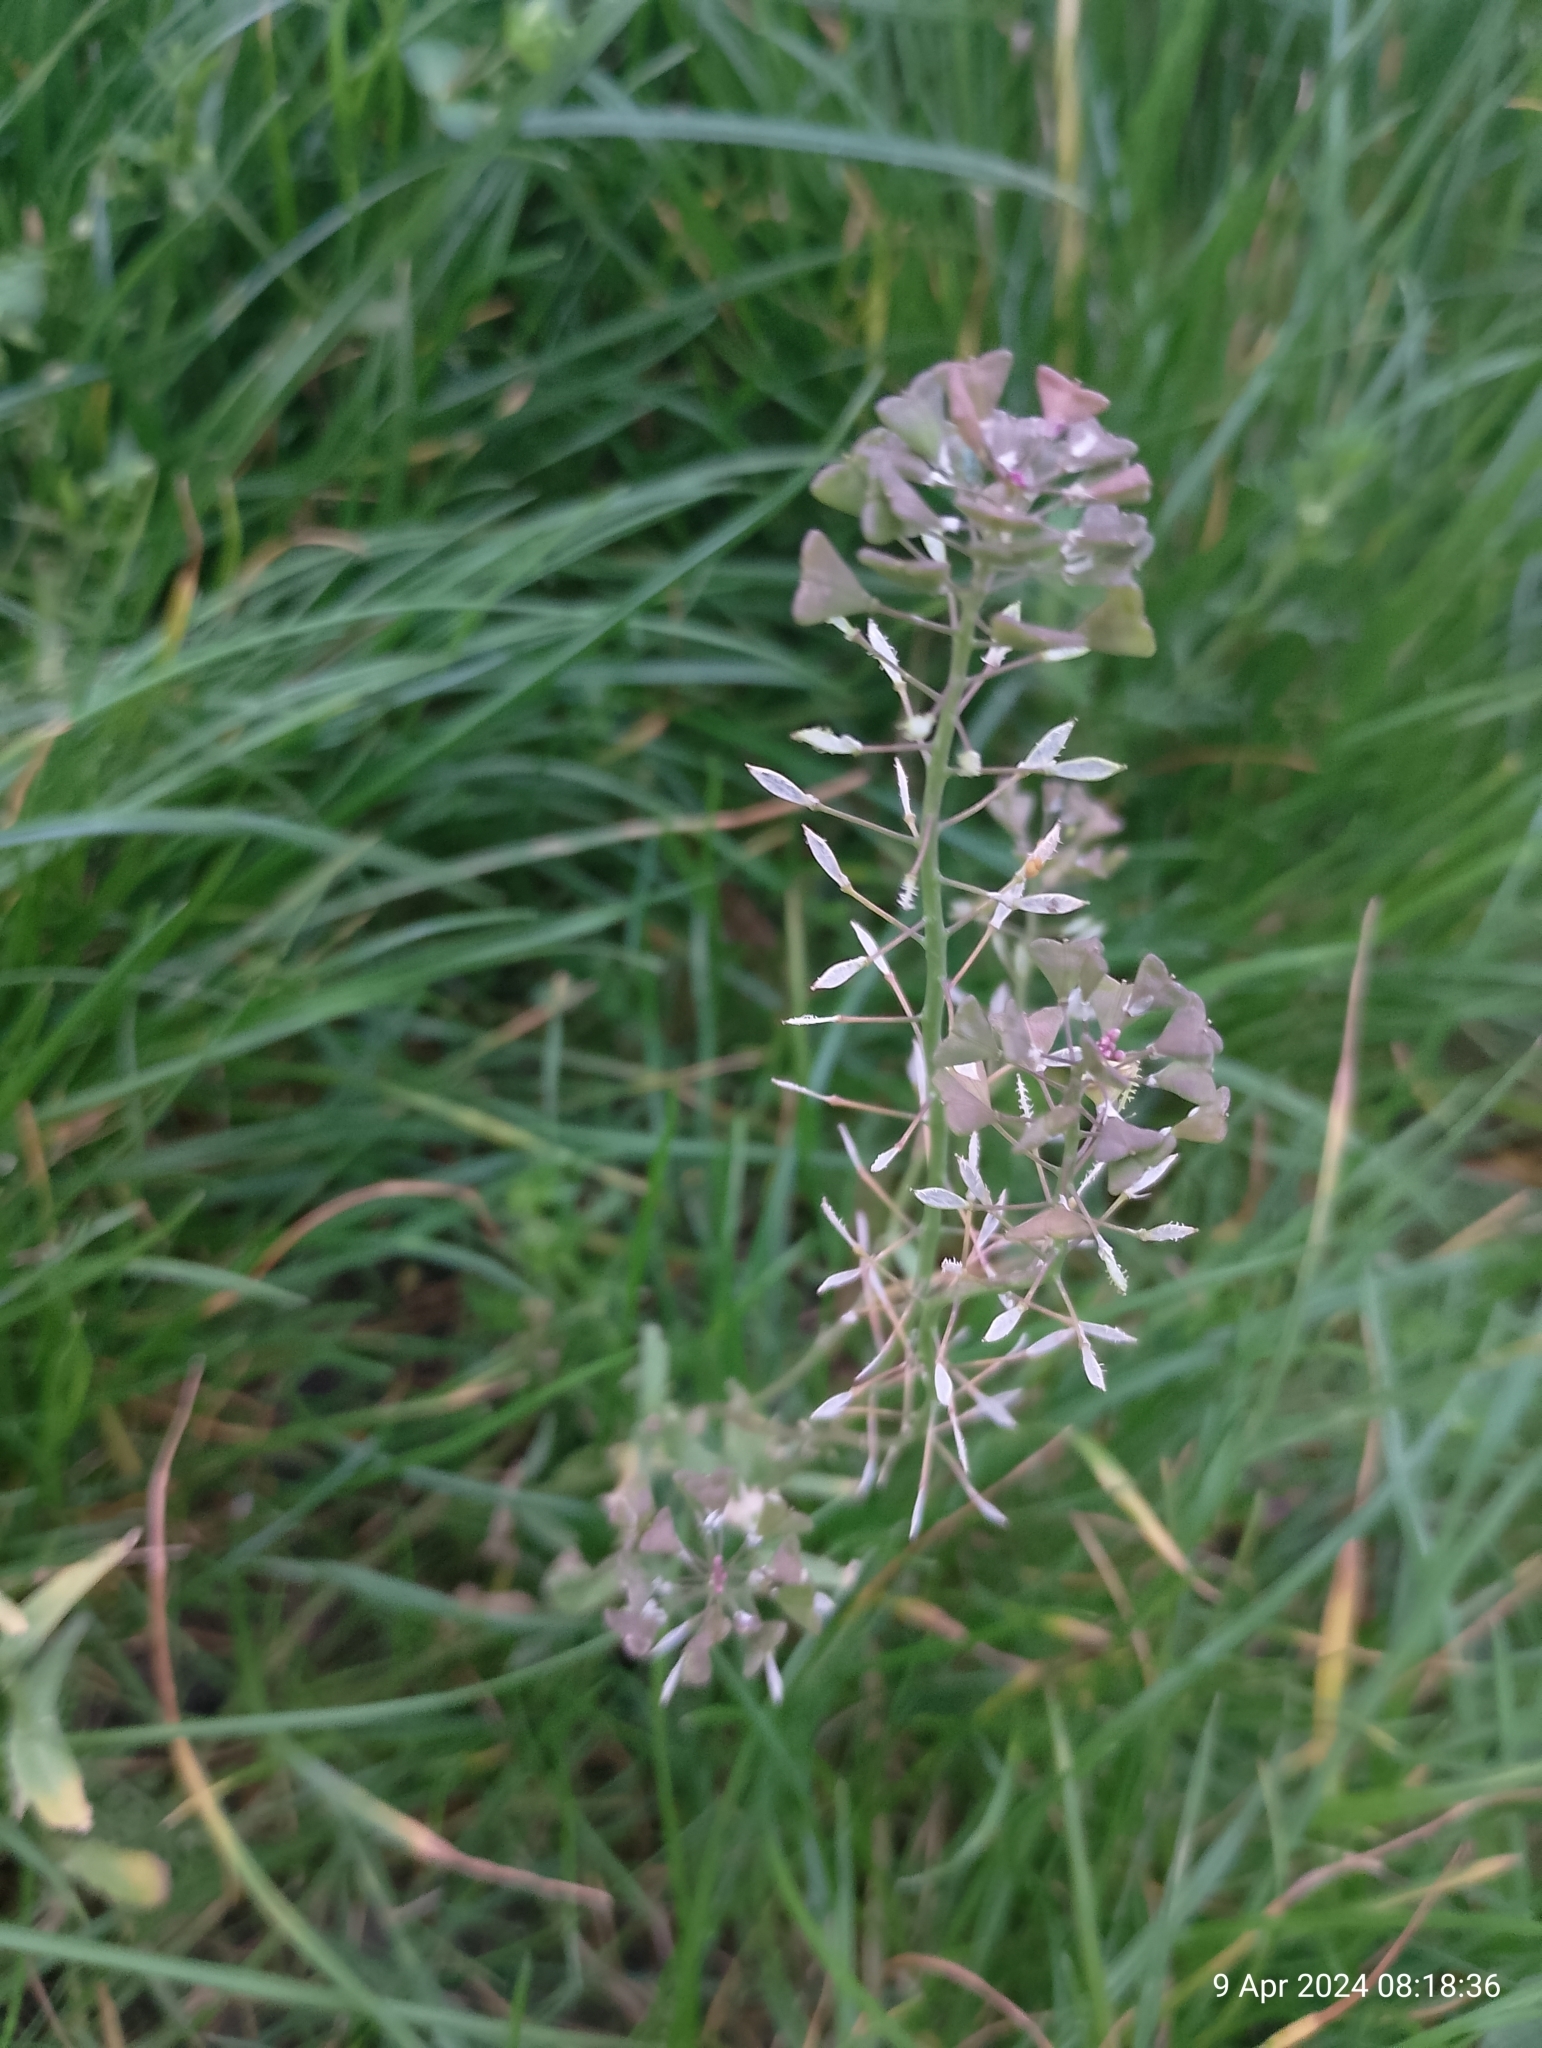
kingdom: Plantae
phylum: Tracheophyta
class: Magnoliopsida
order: Brassicales
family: Brassicaceae
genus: Capsella
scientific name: Capsella bursa-pastoris
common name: Shepherd's purse
